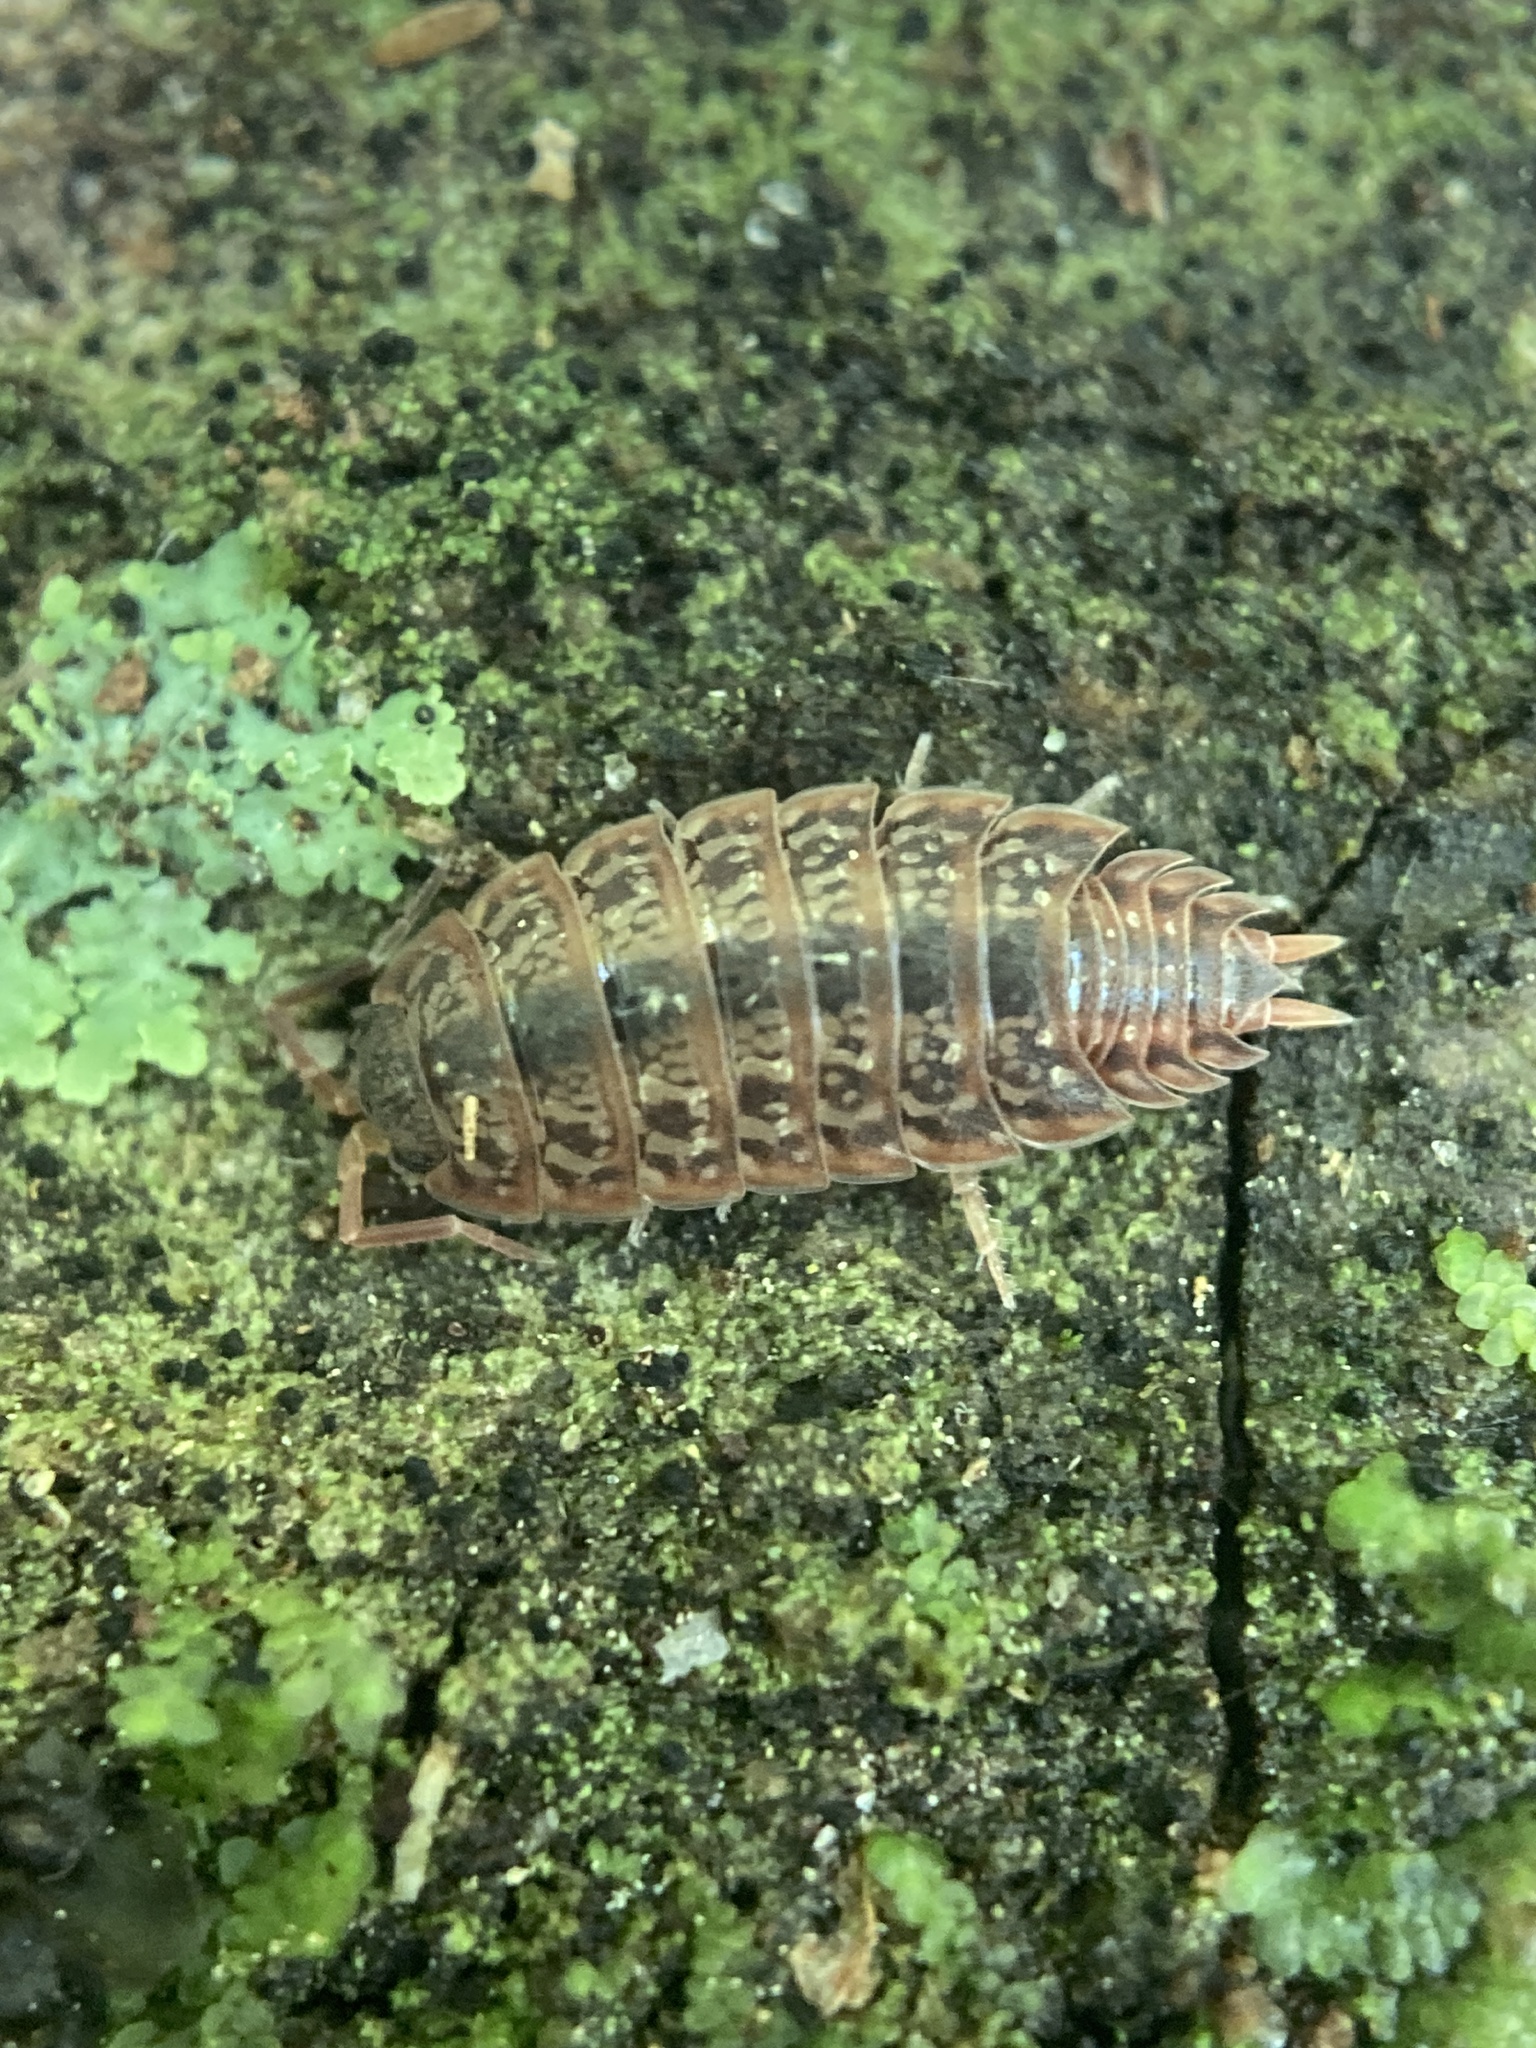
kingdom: Animalia
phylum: Arthropoda
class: Malacostraca
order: Isopoda
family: Porcellionidae
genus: Porcellionides
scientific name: Porcellionides virgatus
